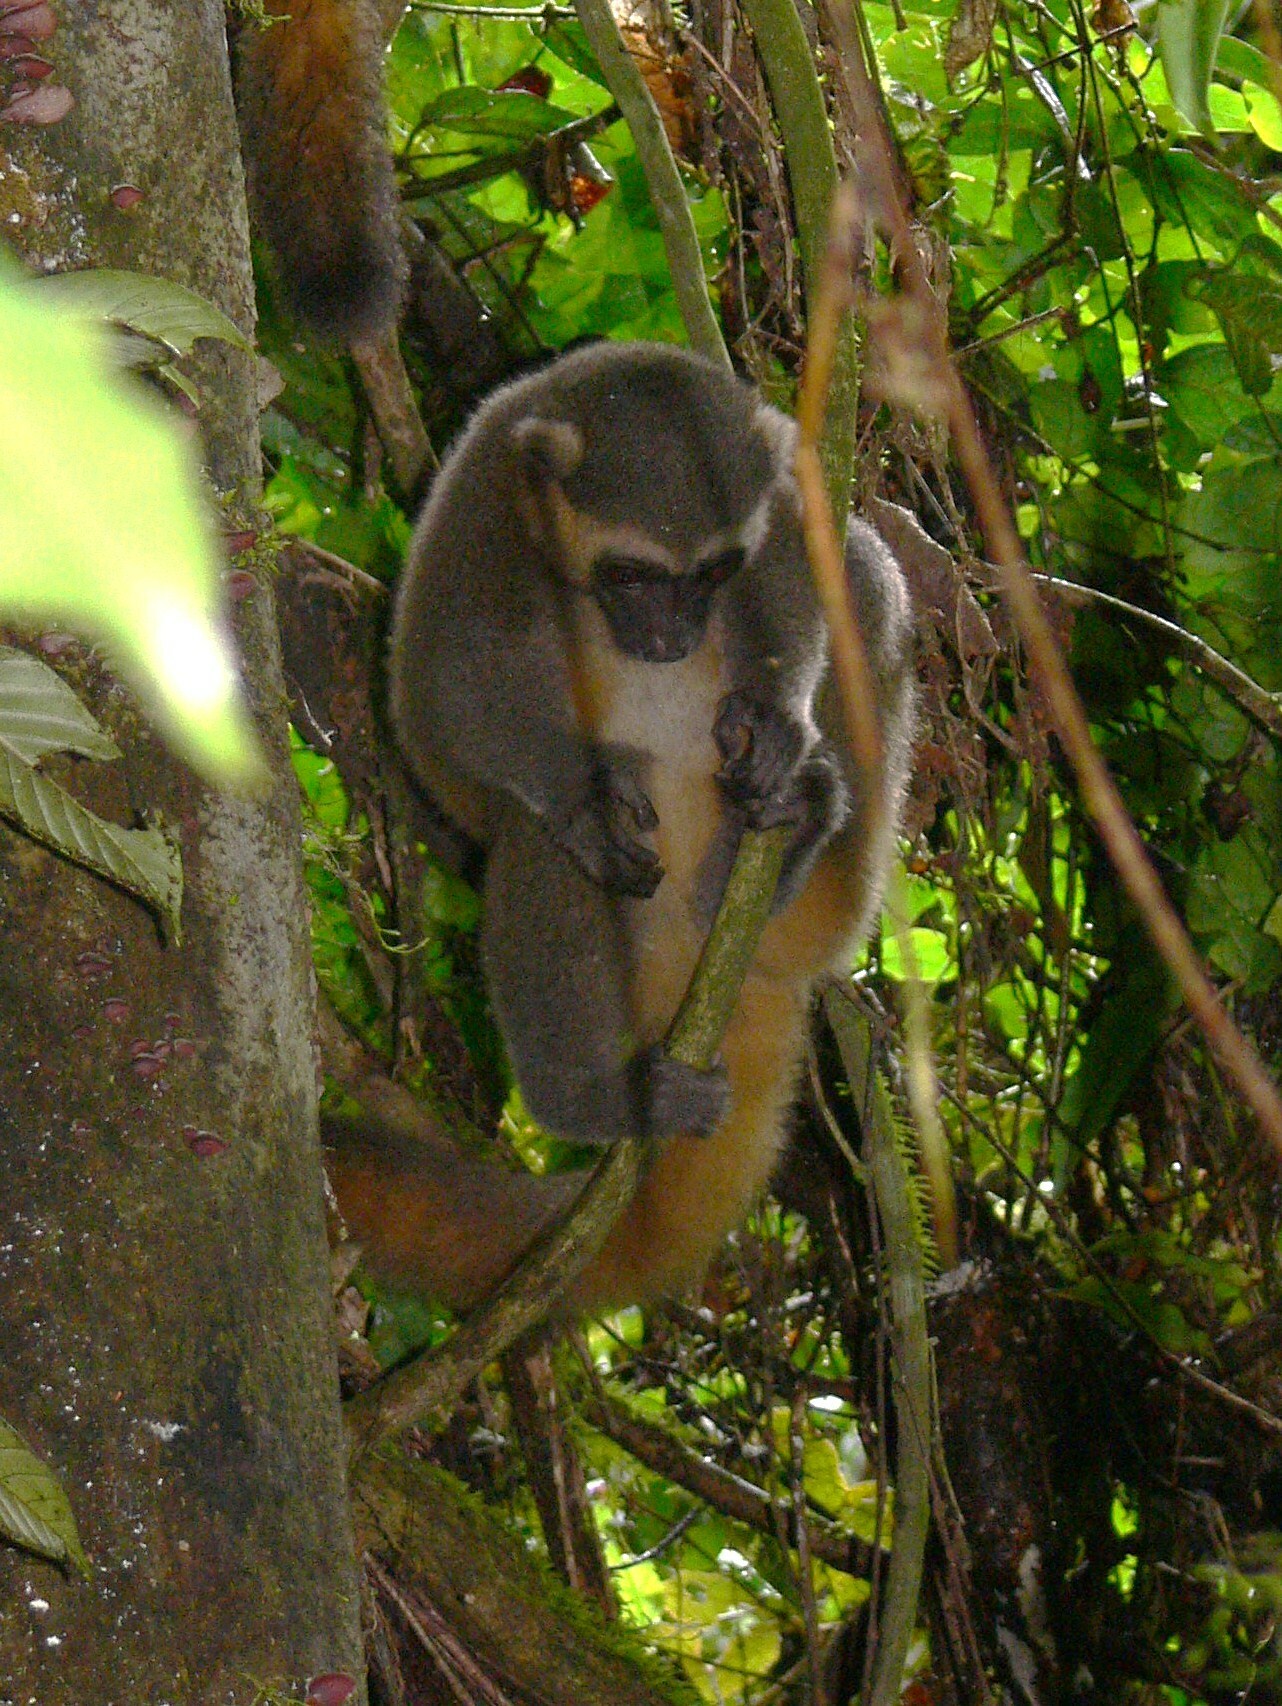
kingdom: Animalia
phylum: Chordata
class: Mammalia
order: Primates
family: Lemuridae
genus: Hapalemur
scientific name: Hapalemur aureus
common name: Golden bamboo lemur
